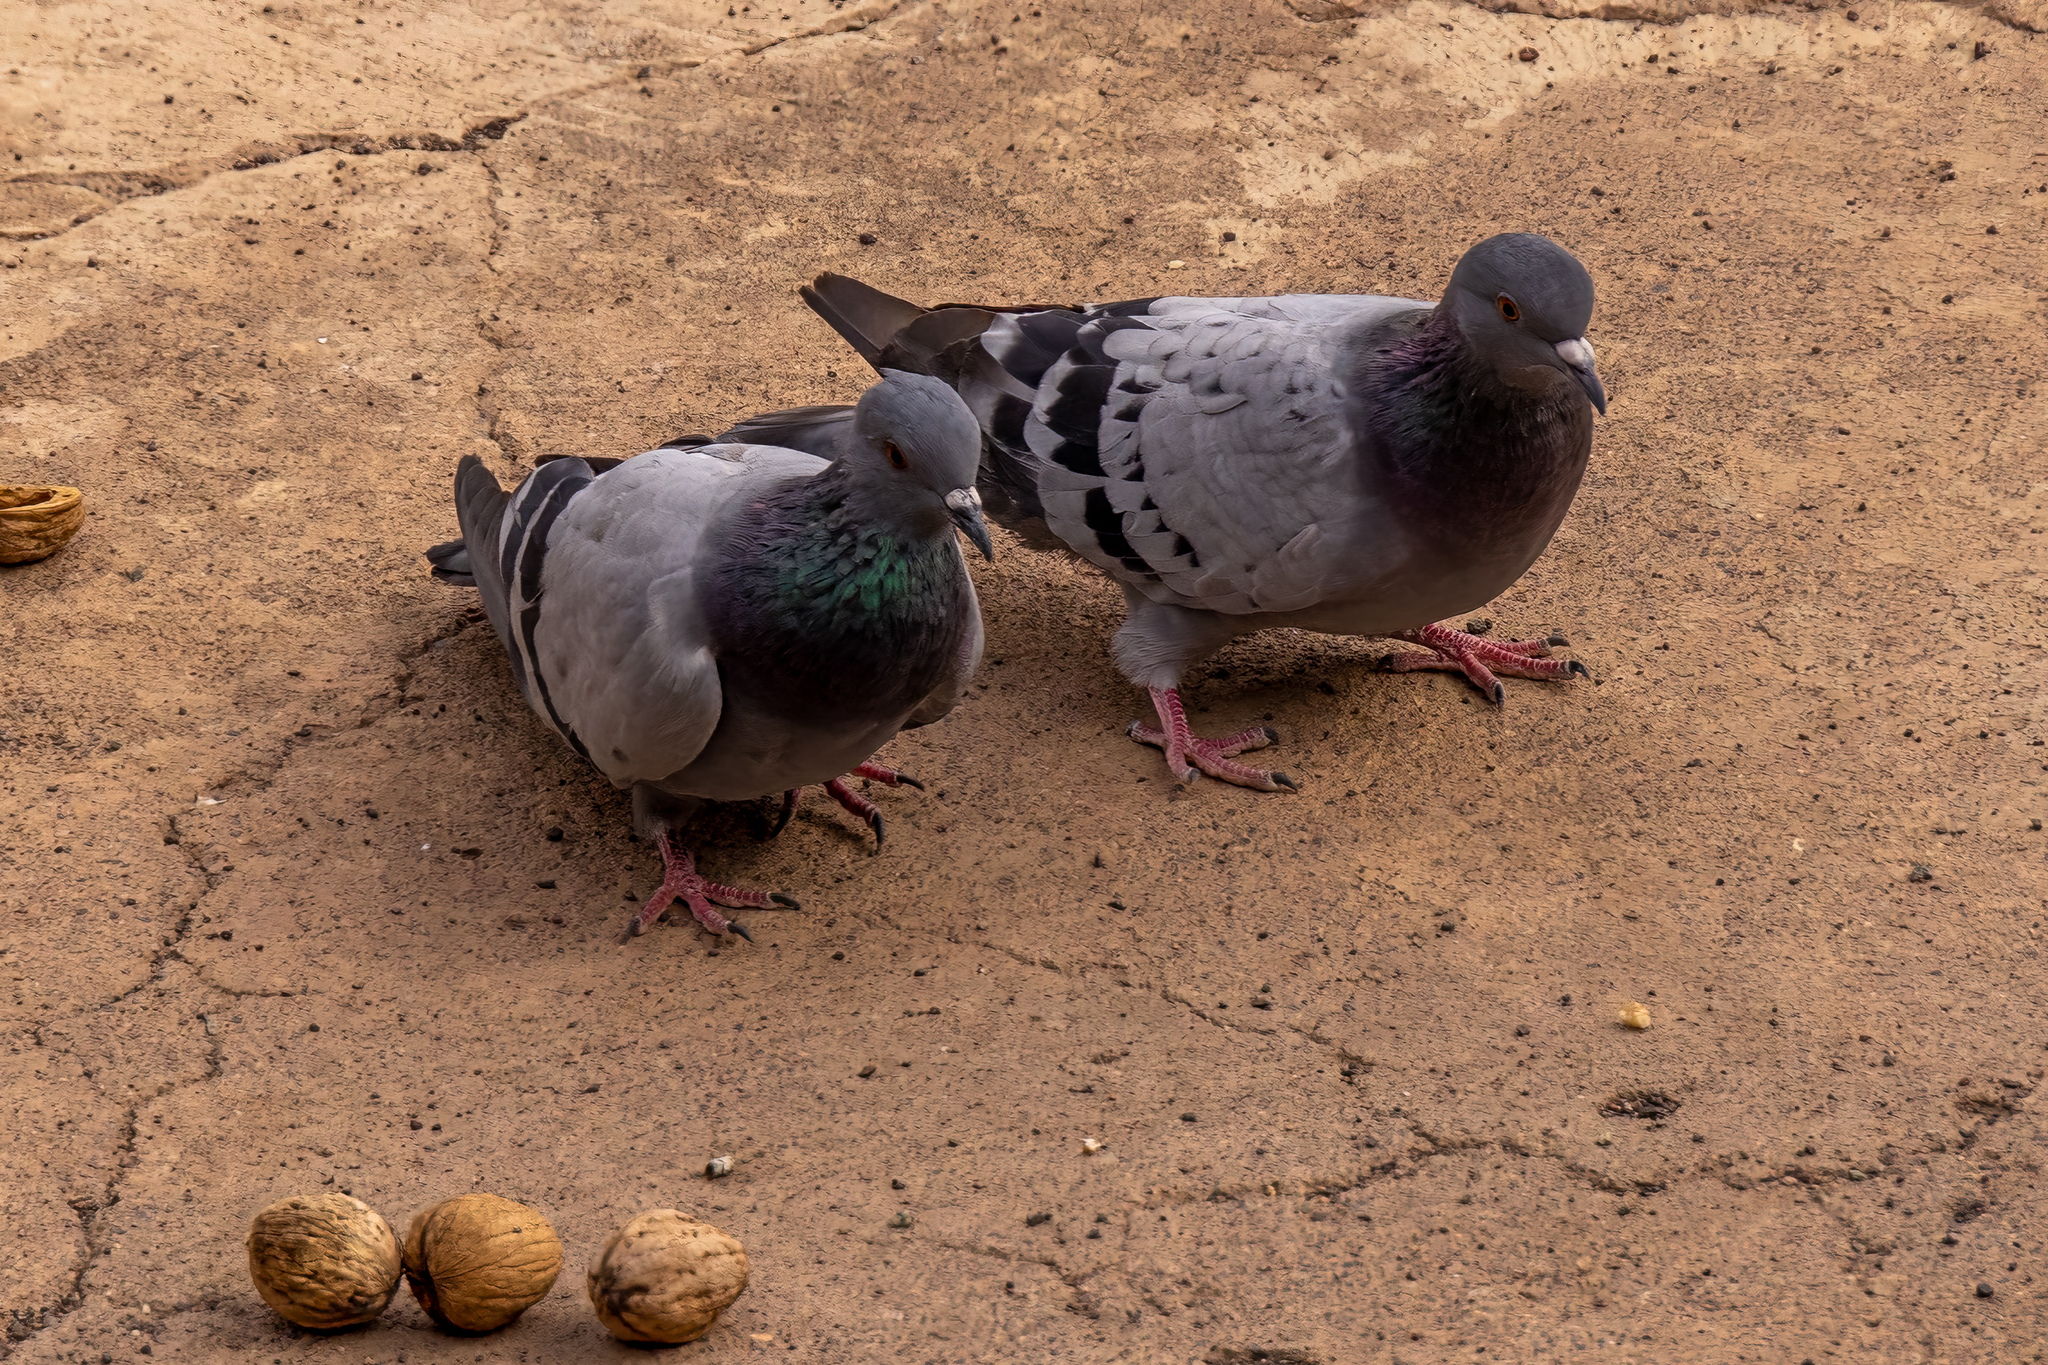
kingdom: Animalia
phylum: Chordata
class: Aves
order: Columbiformes
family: Columbidae
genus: Columba
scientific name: Columba livia
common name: Rock pigeon
